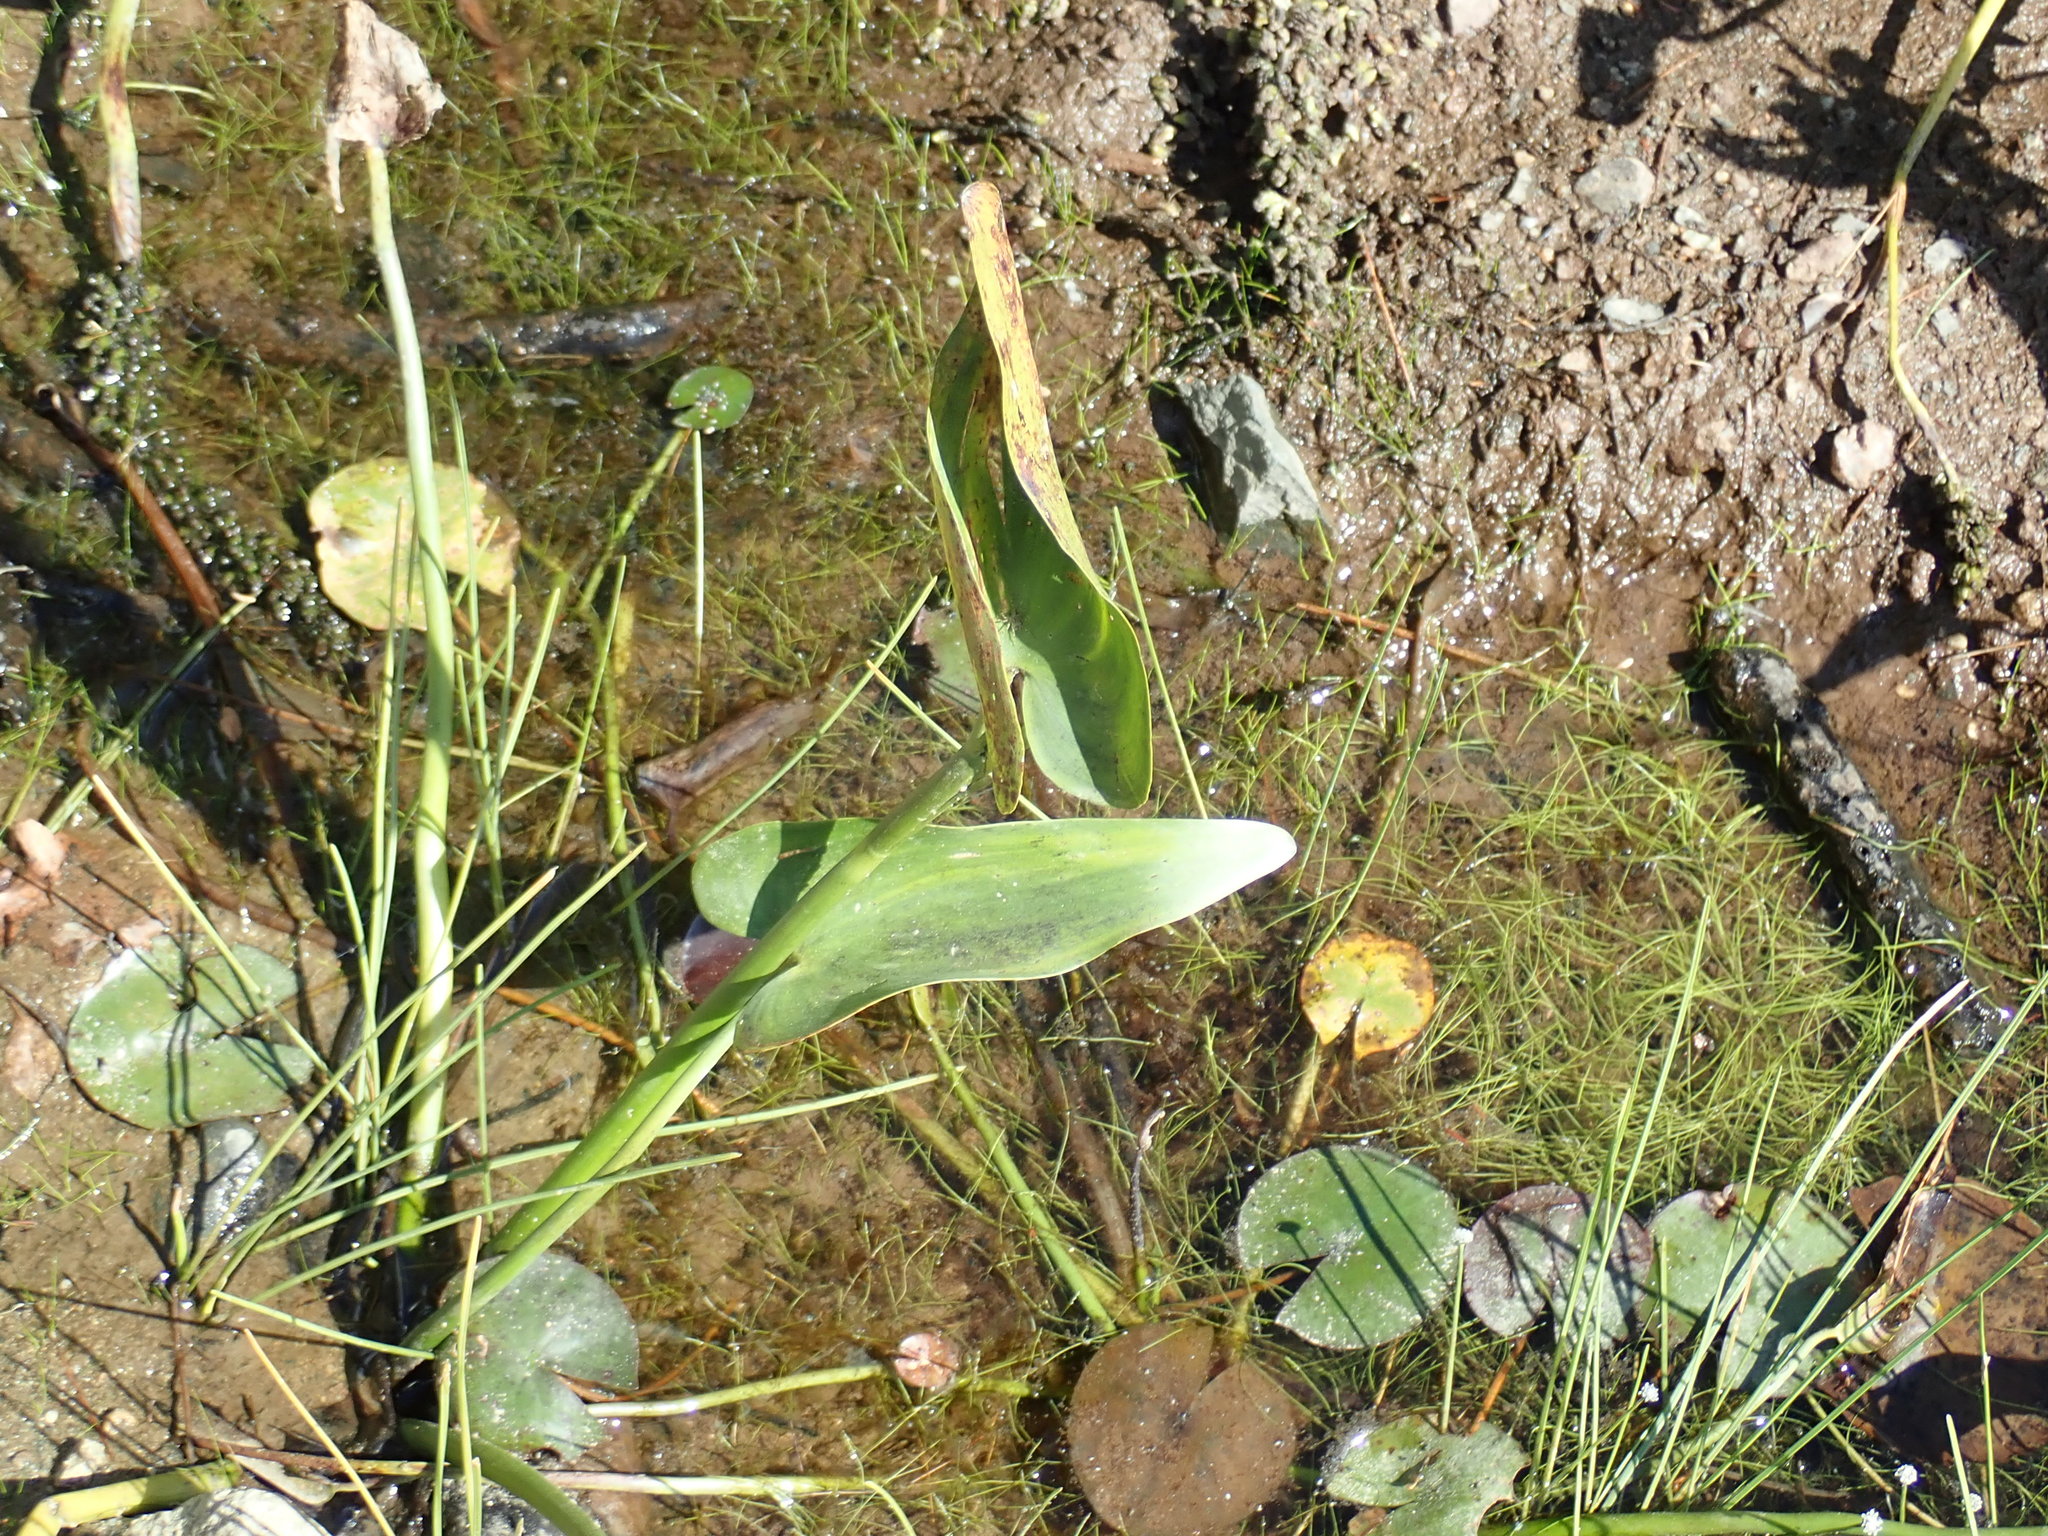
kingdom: Plantae
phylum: Tracheophyta
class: Liliopsida
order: Commelinales
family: Pontederiaceae
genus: Pontederia
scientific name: Pontederia cordata
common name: Pickerelweed
